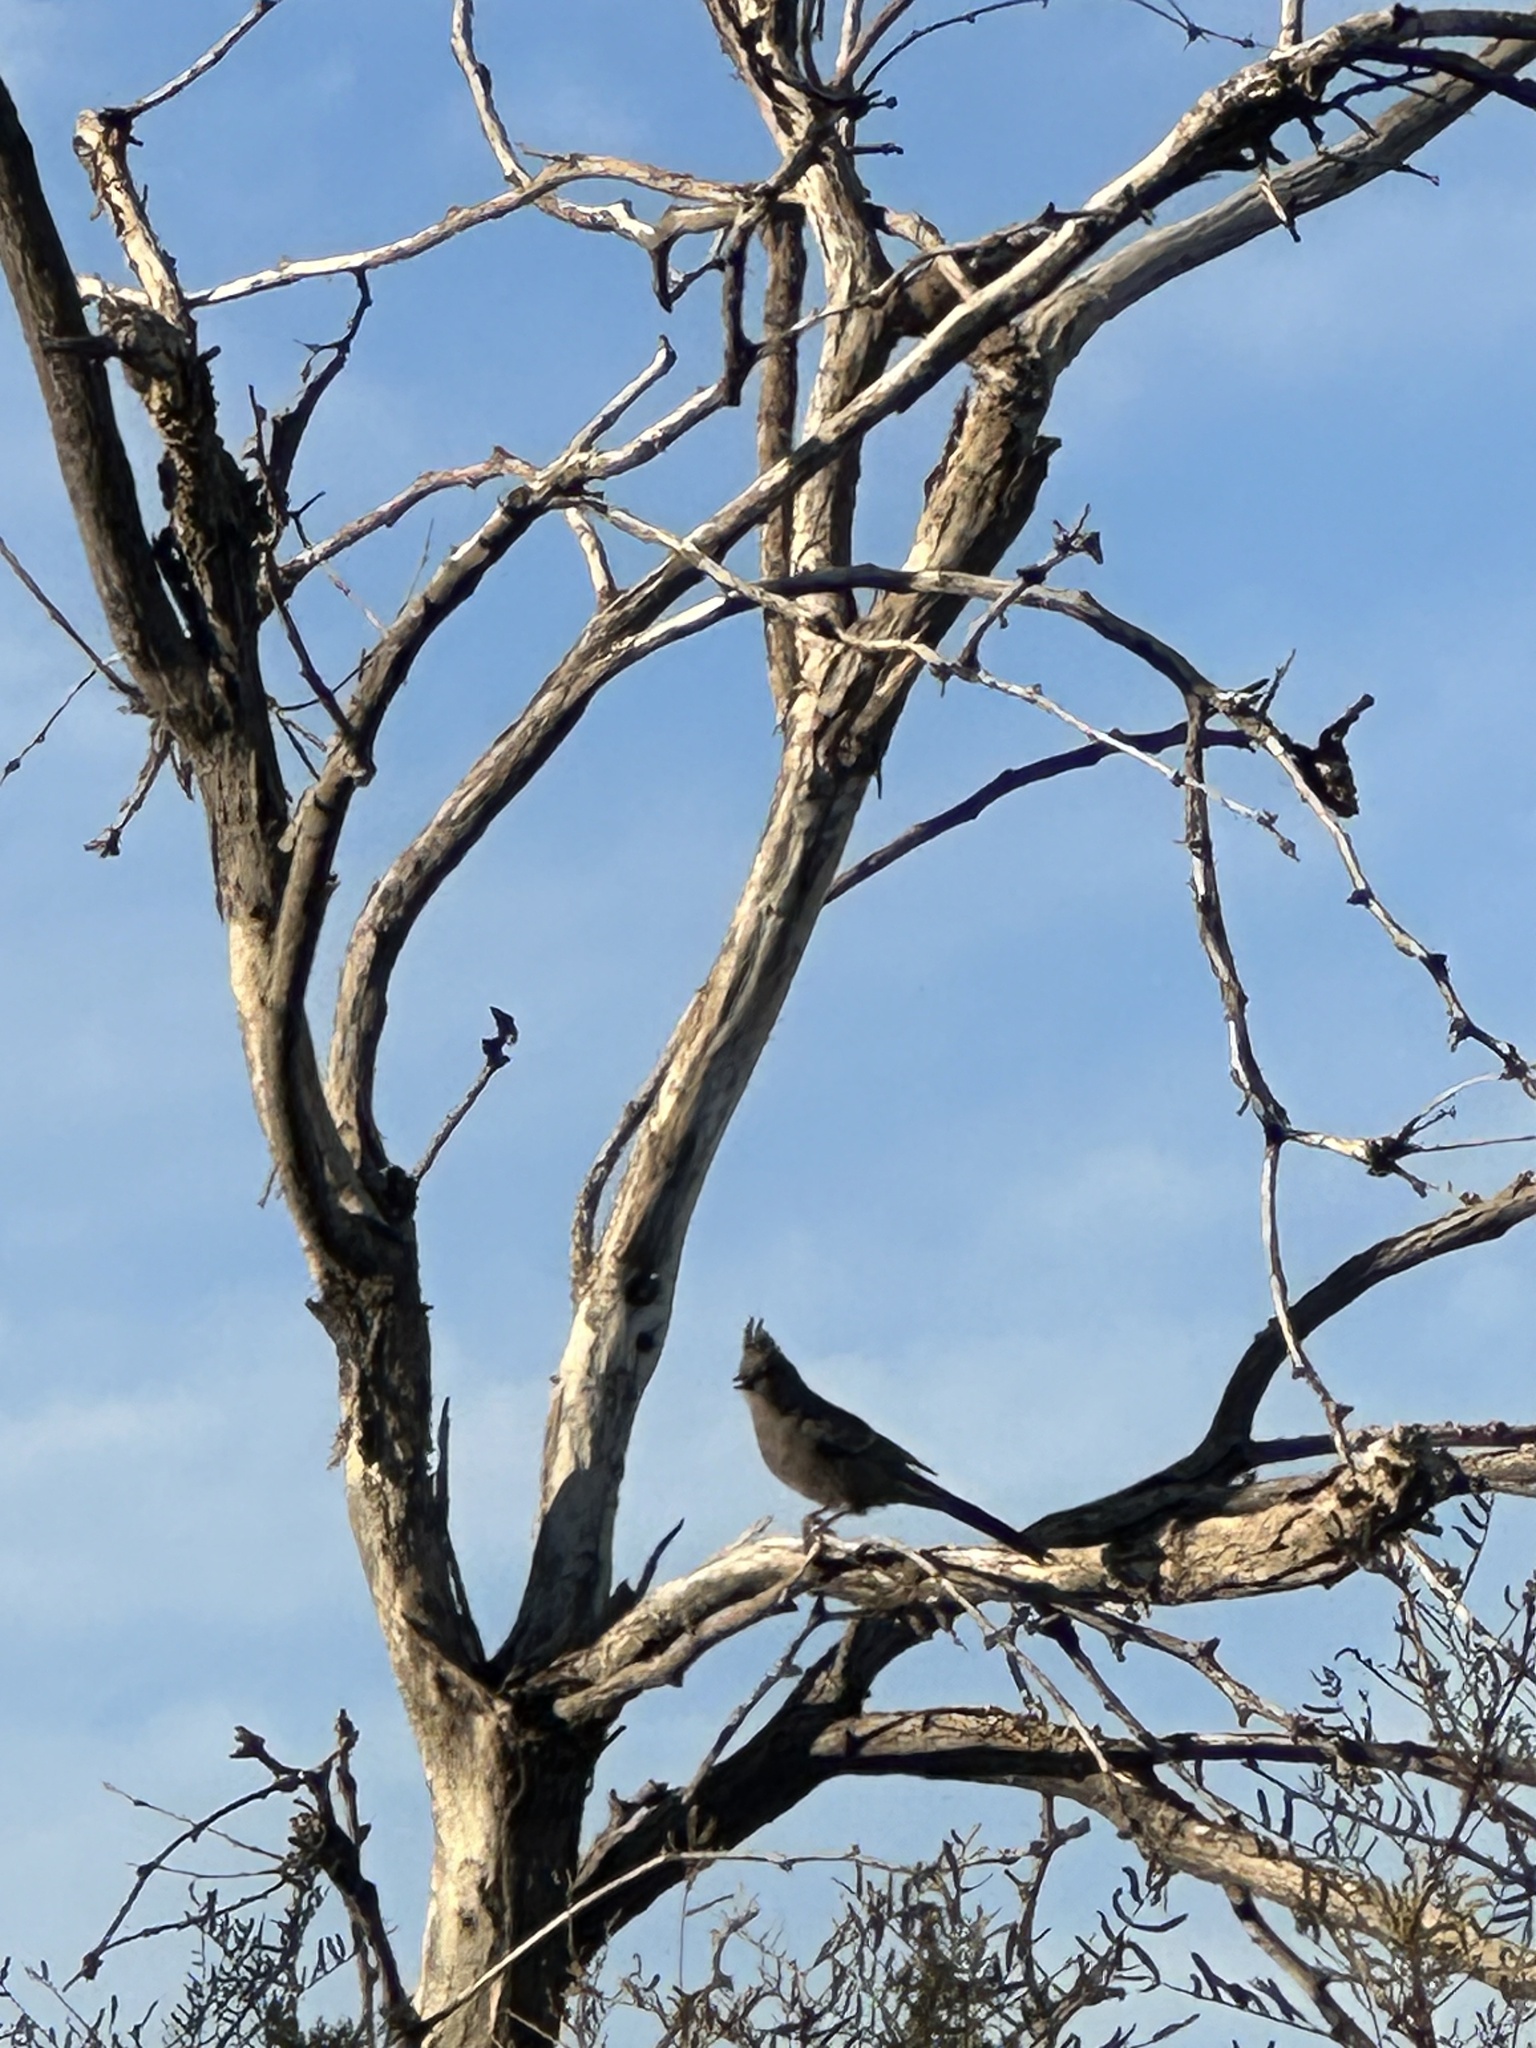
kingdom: Animalia
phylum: Chordata
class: Aves
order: Passeriformes
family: Ptilogonatidae
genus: Phainopepla
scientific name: Phainopepla nitens
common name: Phainopepla
